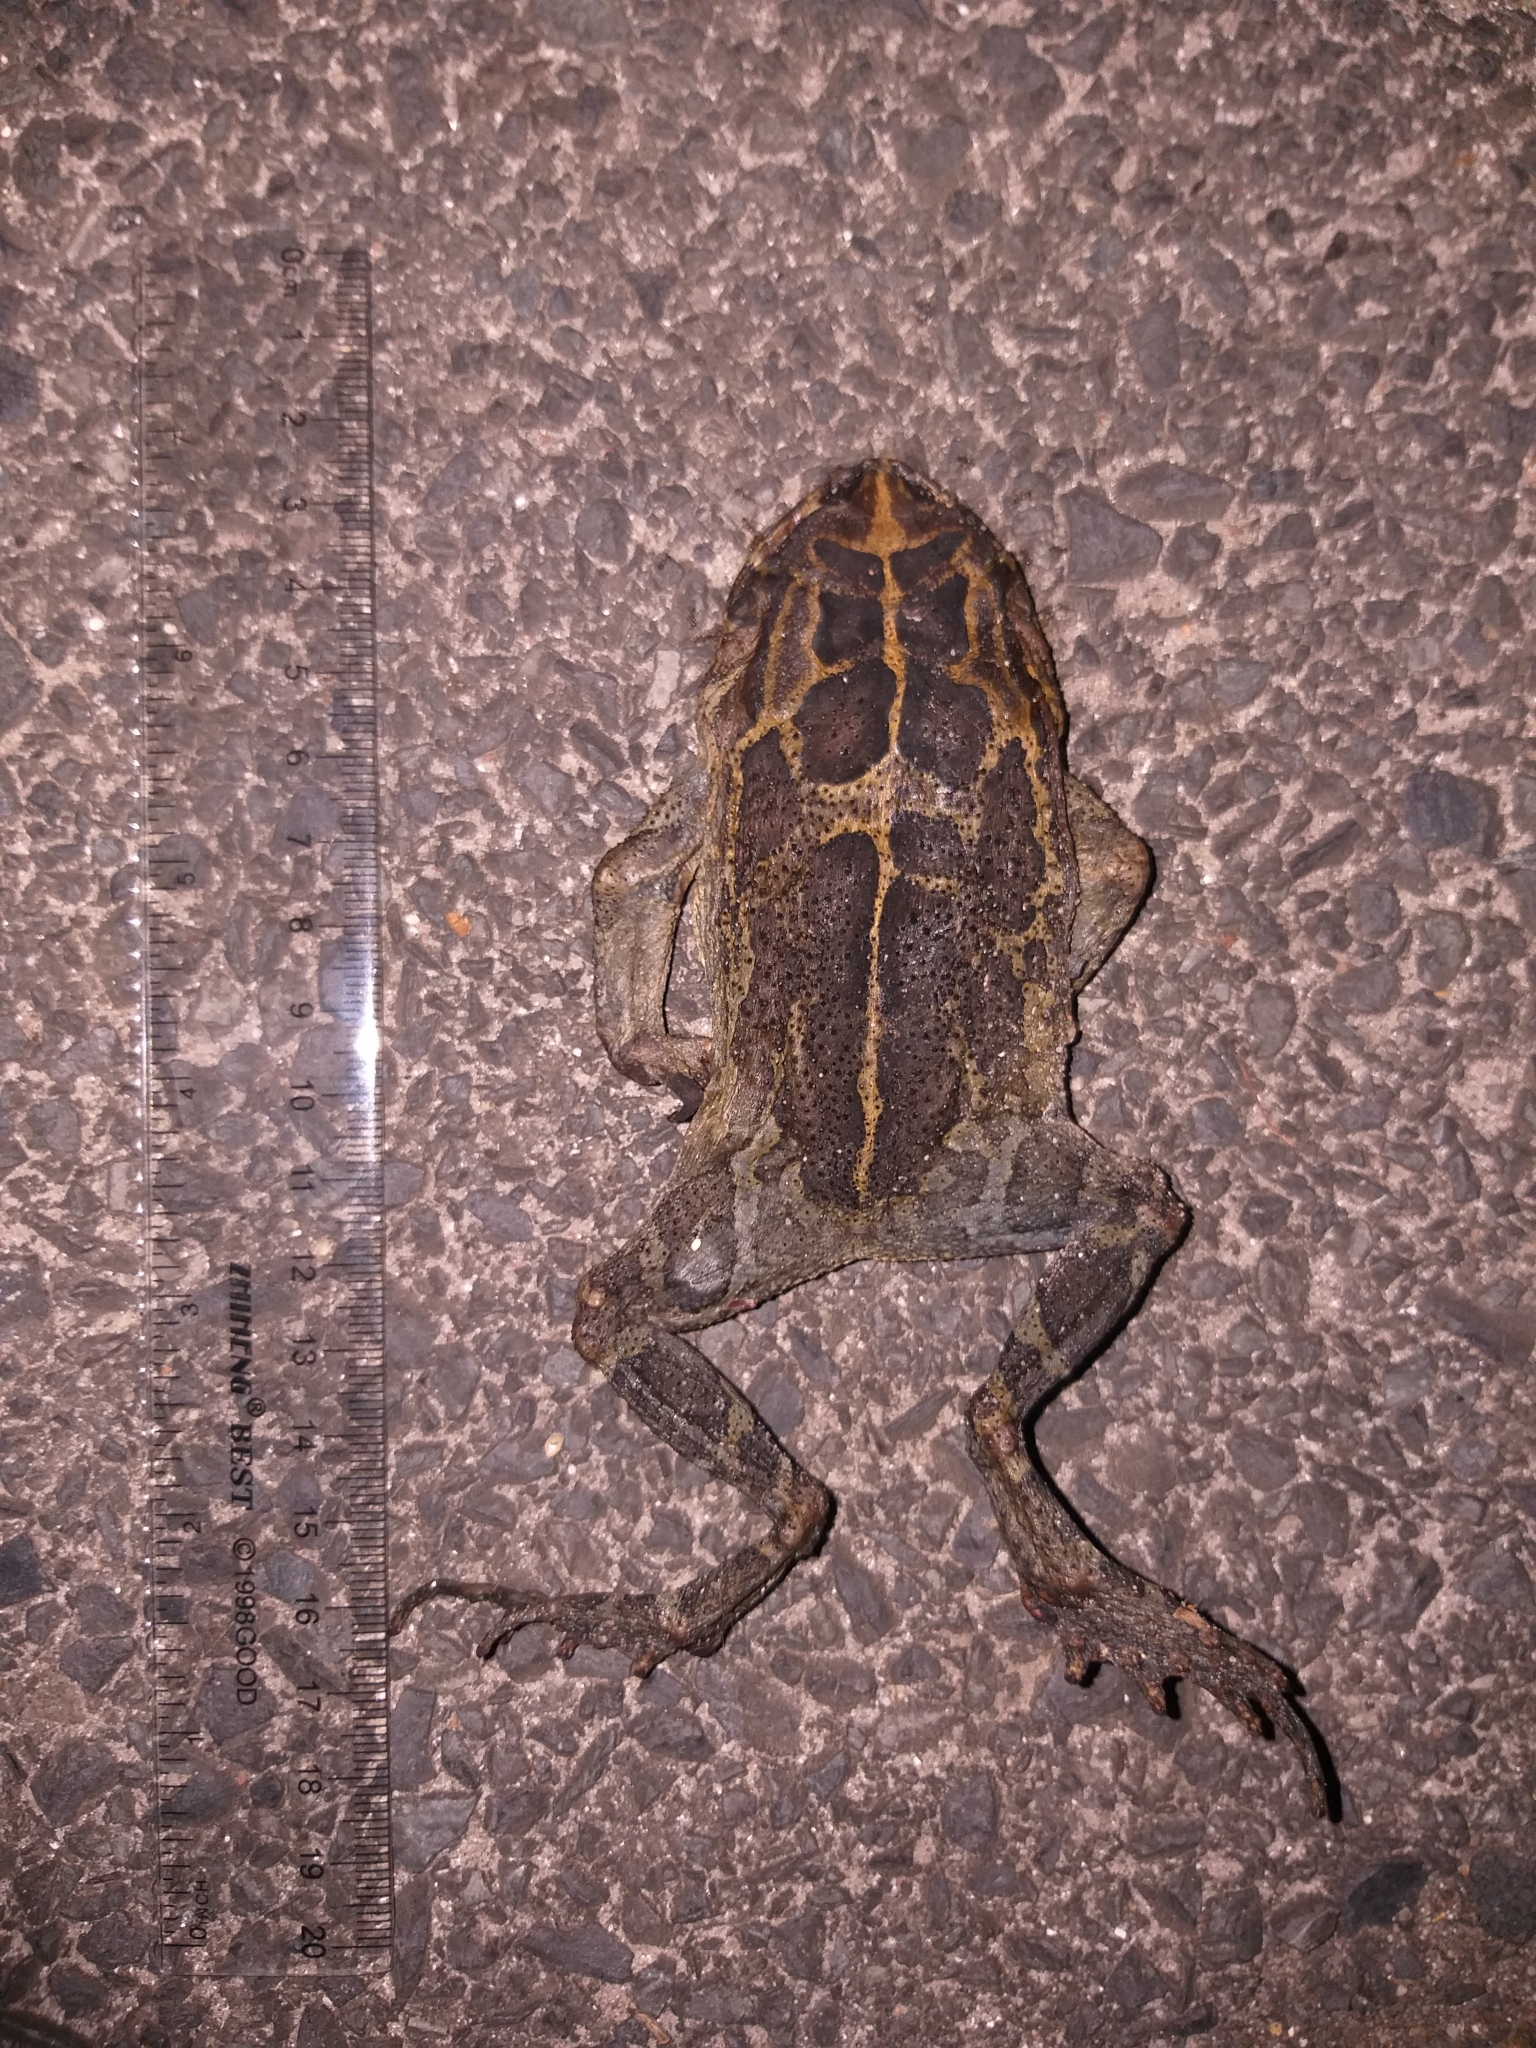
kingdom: Animalia
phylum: Chordata
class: Amphibia
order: Anura
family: Bufonidae
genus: Sclerophrys
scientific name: Sclerophrys pantherina
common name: Panther toad
